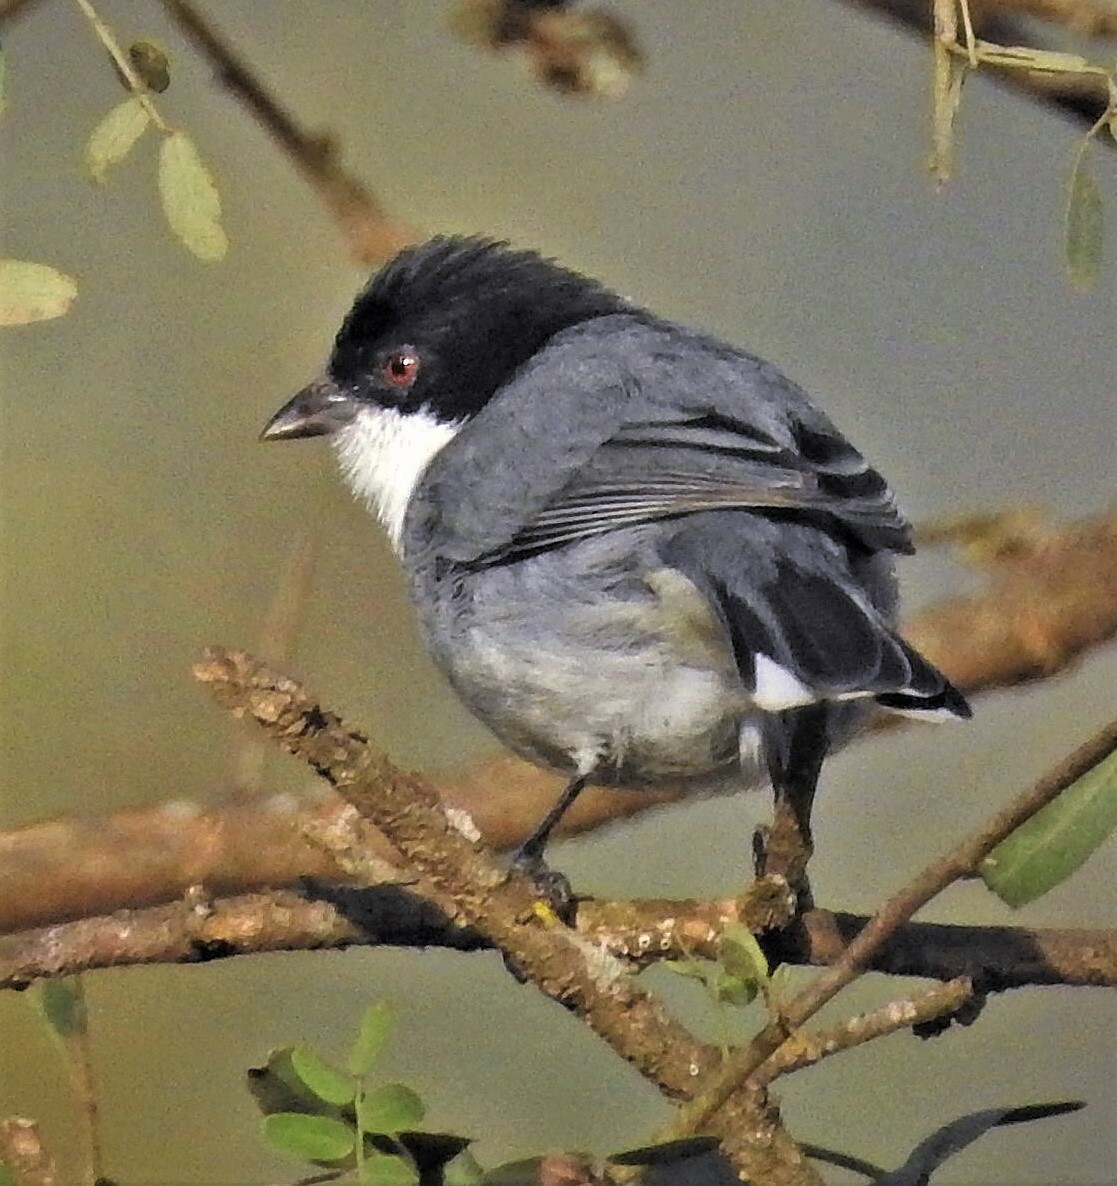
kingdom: Animalia
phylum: Chordata
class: Aves
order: Passeriformes
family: Thraupidae
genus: Microspingus
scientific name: Microspingus melanoleucus
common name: Black-capped warbling-finch
